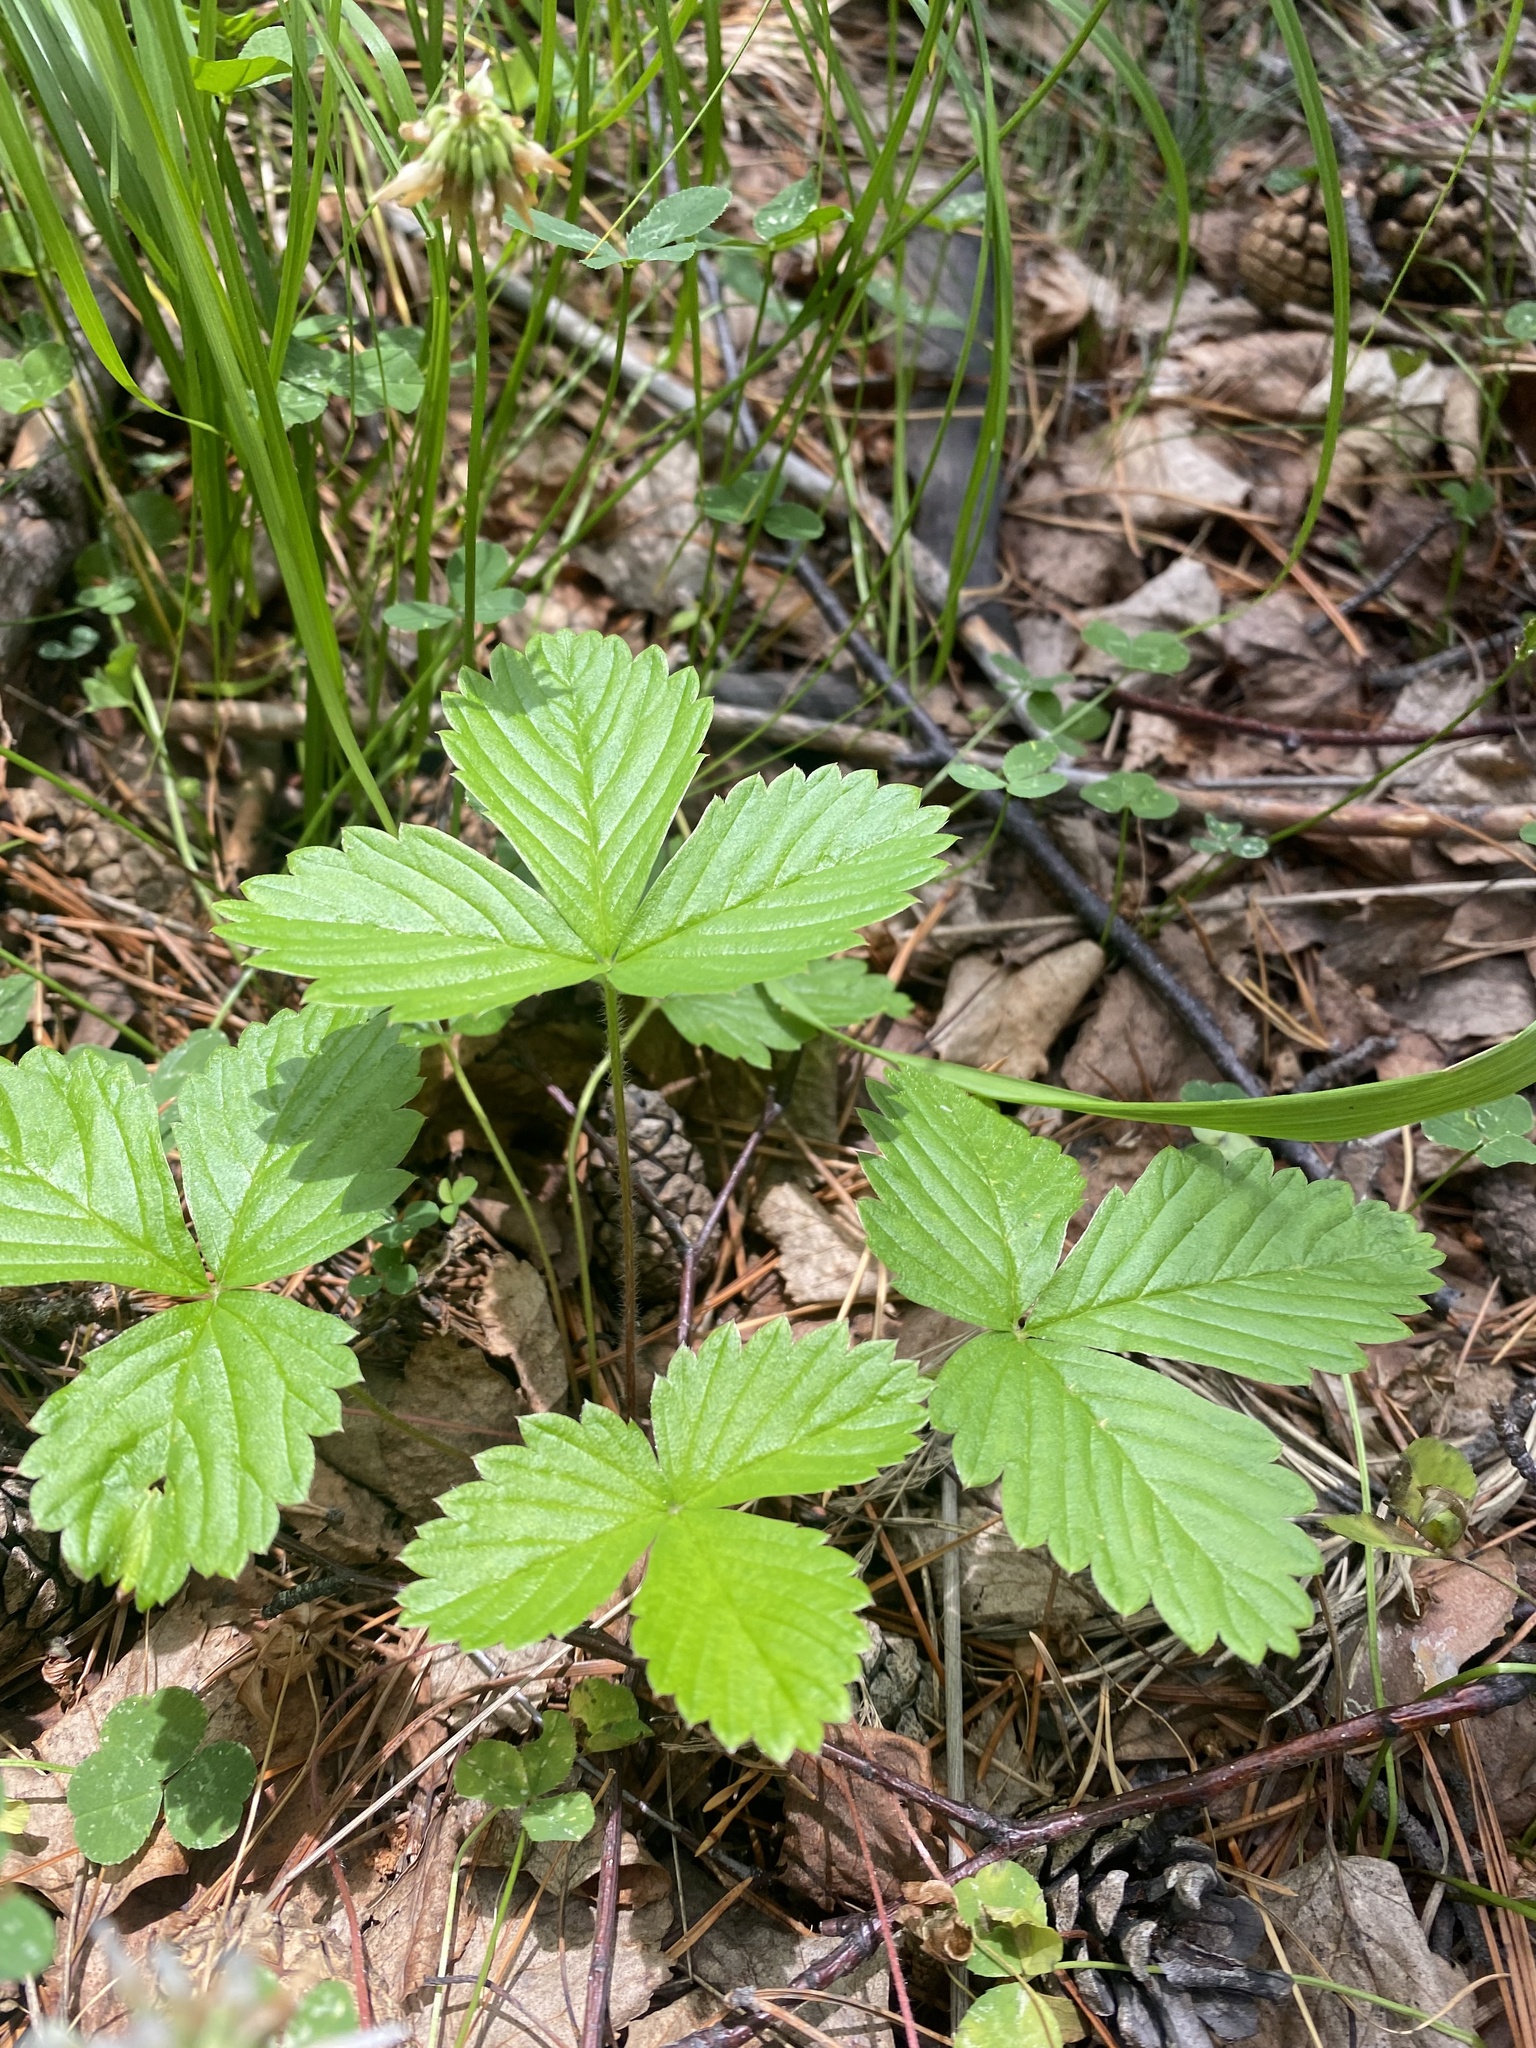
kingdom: Plantae
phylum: Tracheophyta
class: Magnoliopsida
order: Rosales
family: Rosaceae
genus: Fragaria
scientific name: Fragaria vesca
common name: Wild strawberry
